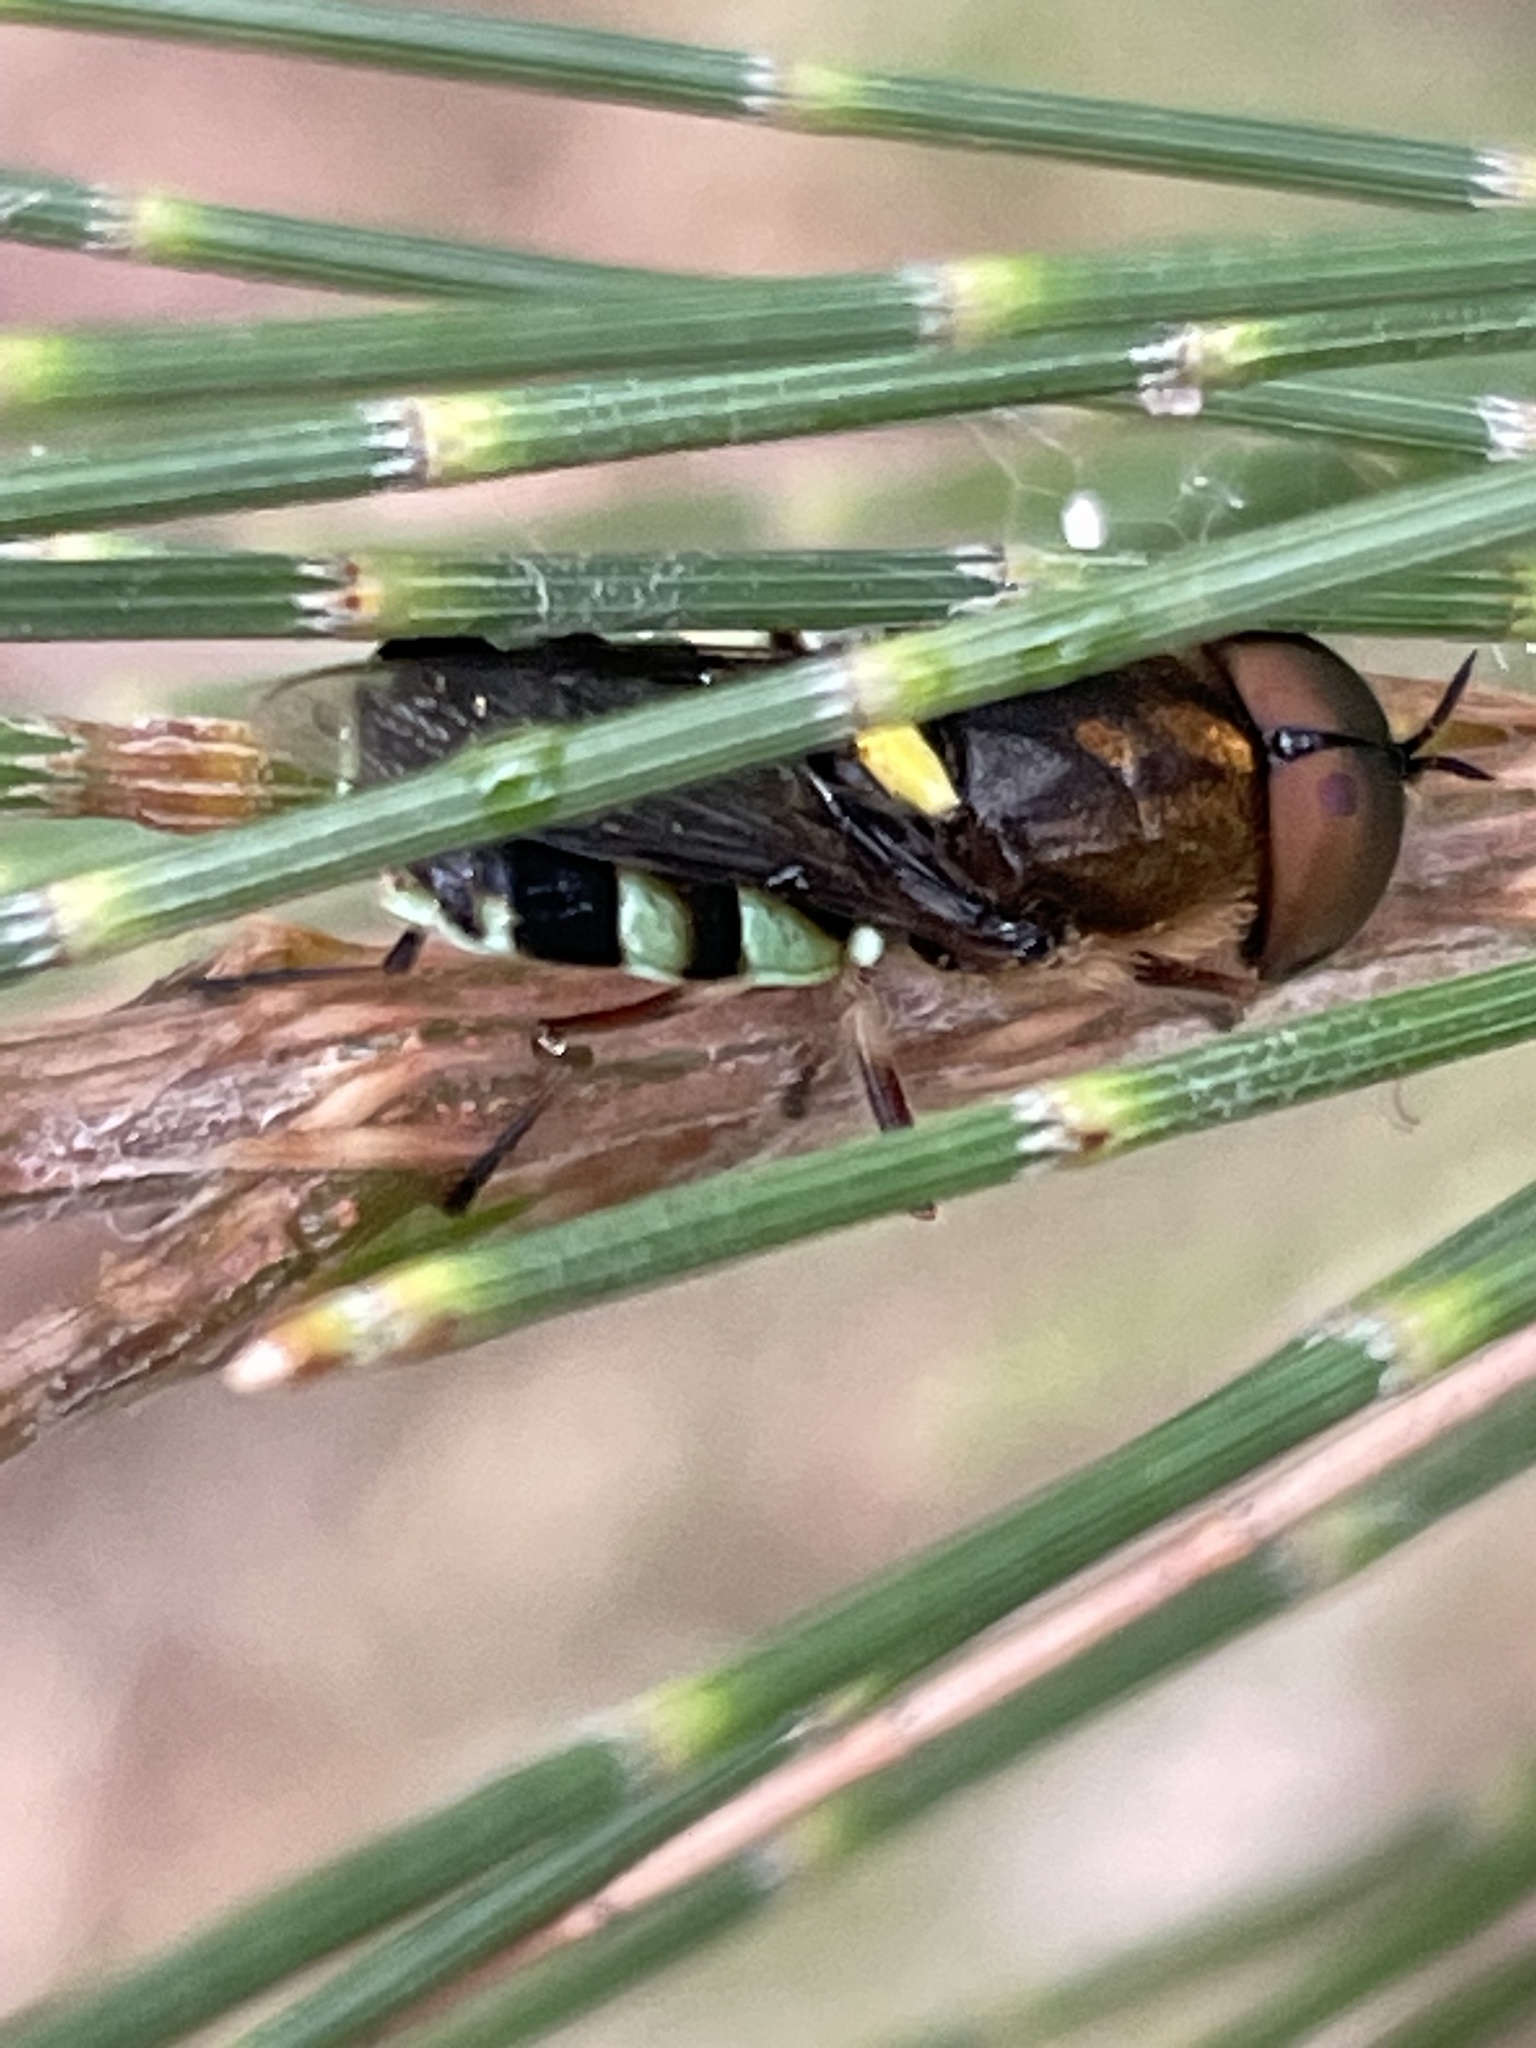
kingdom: Animalia
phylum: Arthropoda
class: Insecta
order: Diptera
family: Stratiomyidae
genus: Odontomyia
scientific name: Odontomyia hunteri
